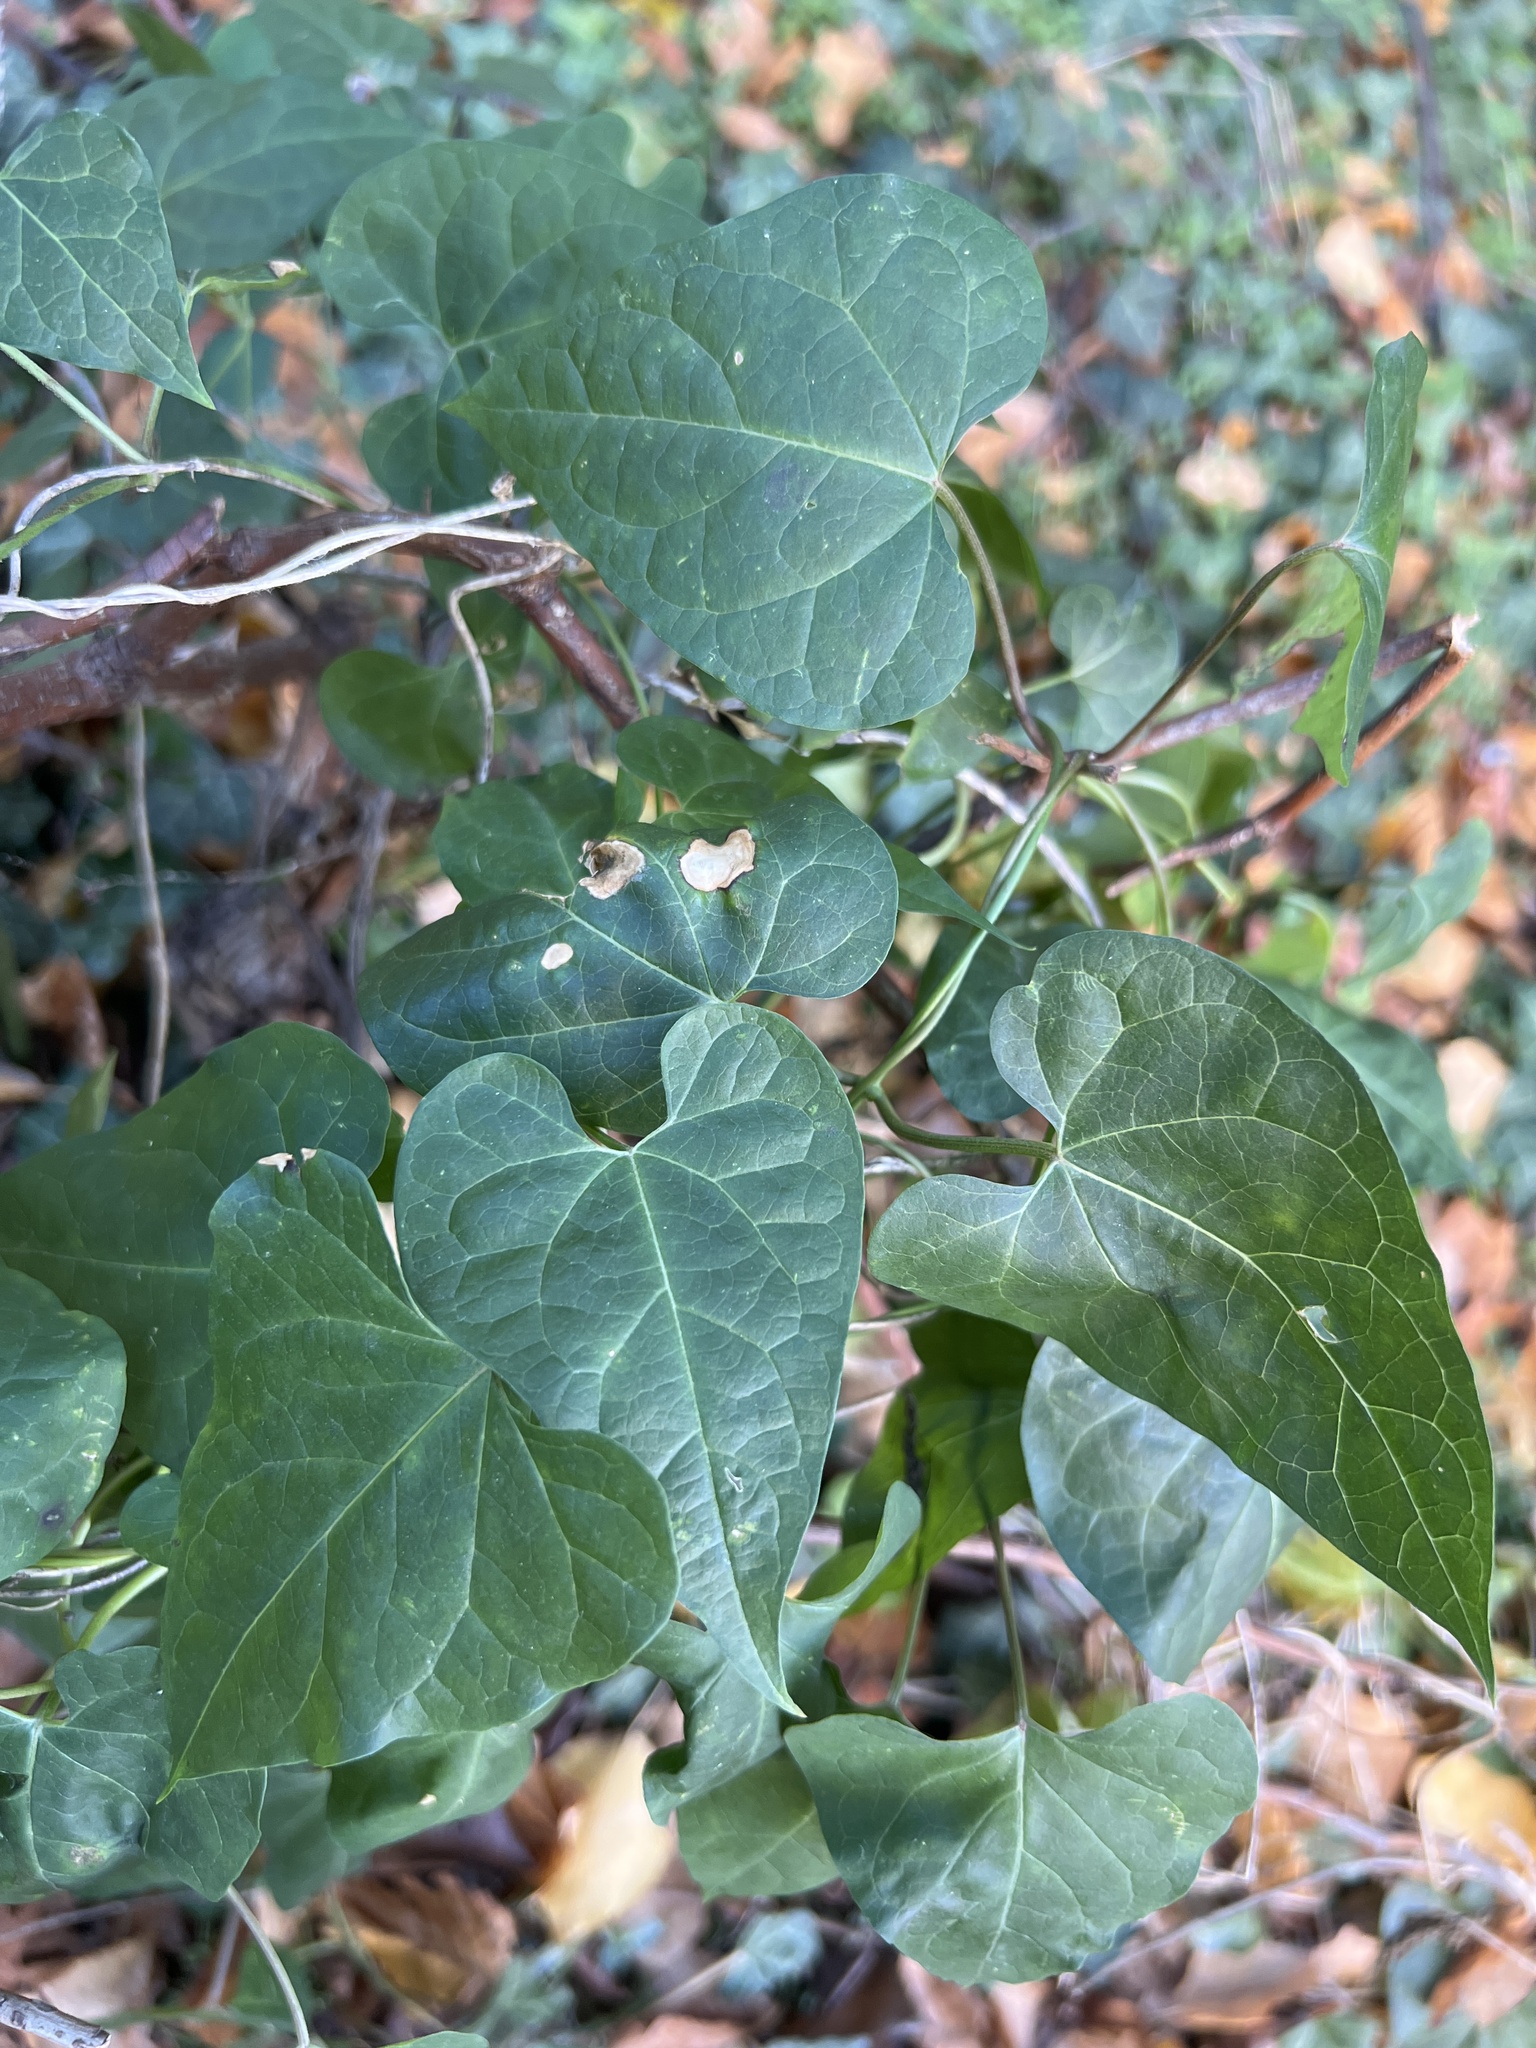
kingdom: Plantae
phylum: Tracheophyta
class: Magnoliopsida
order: Gentianales
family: Apocynaceae
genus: Cynanchum
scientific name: Cynanchum laeve
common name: Sandvine
